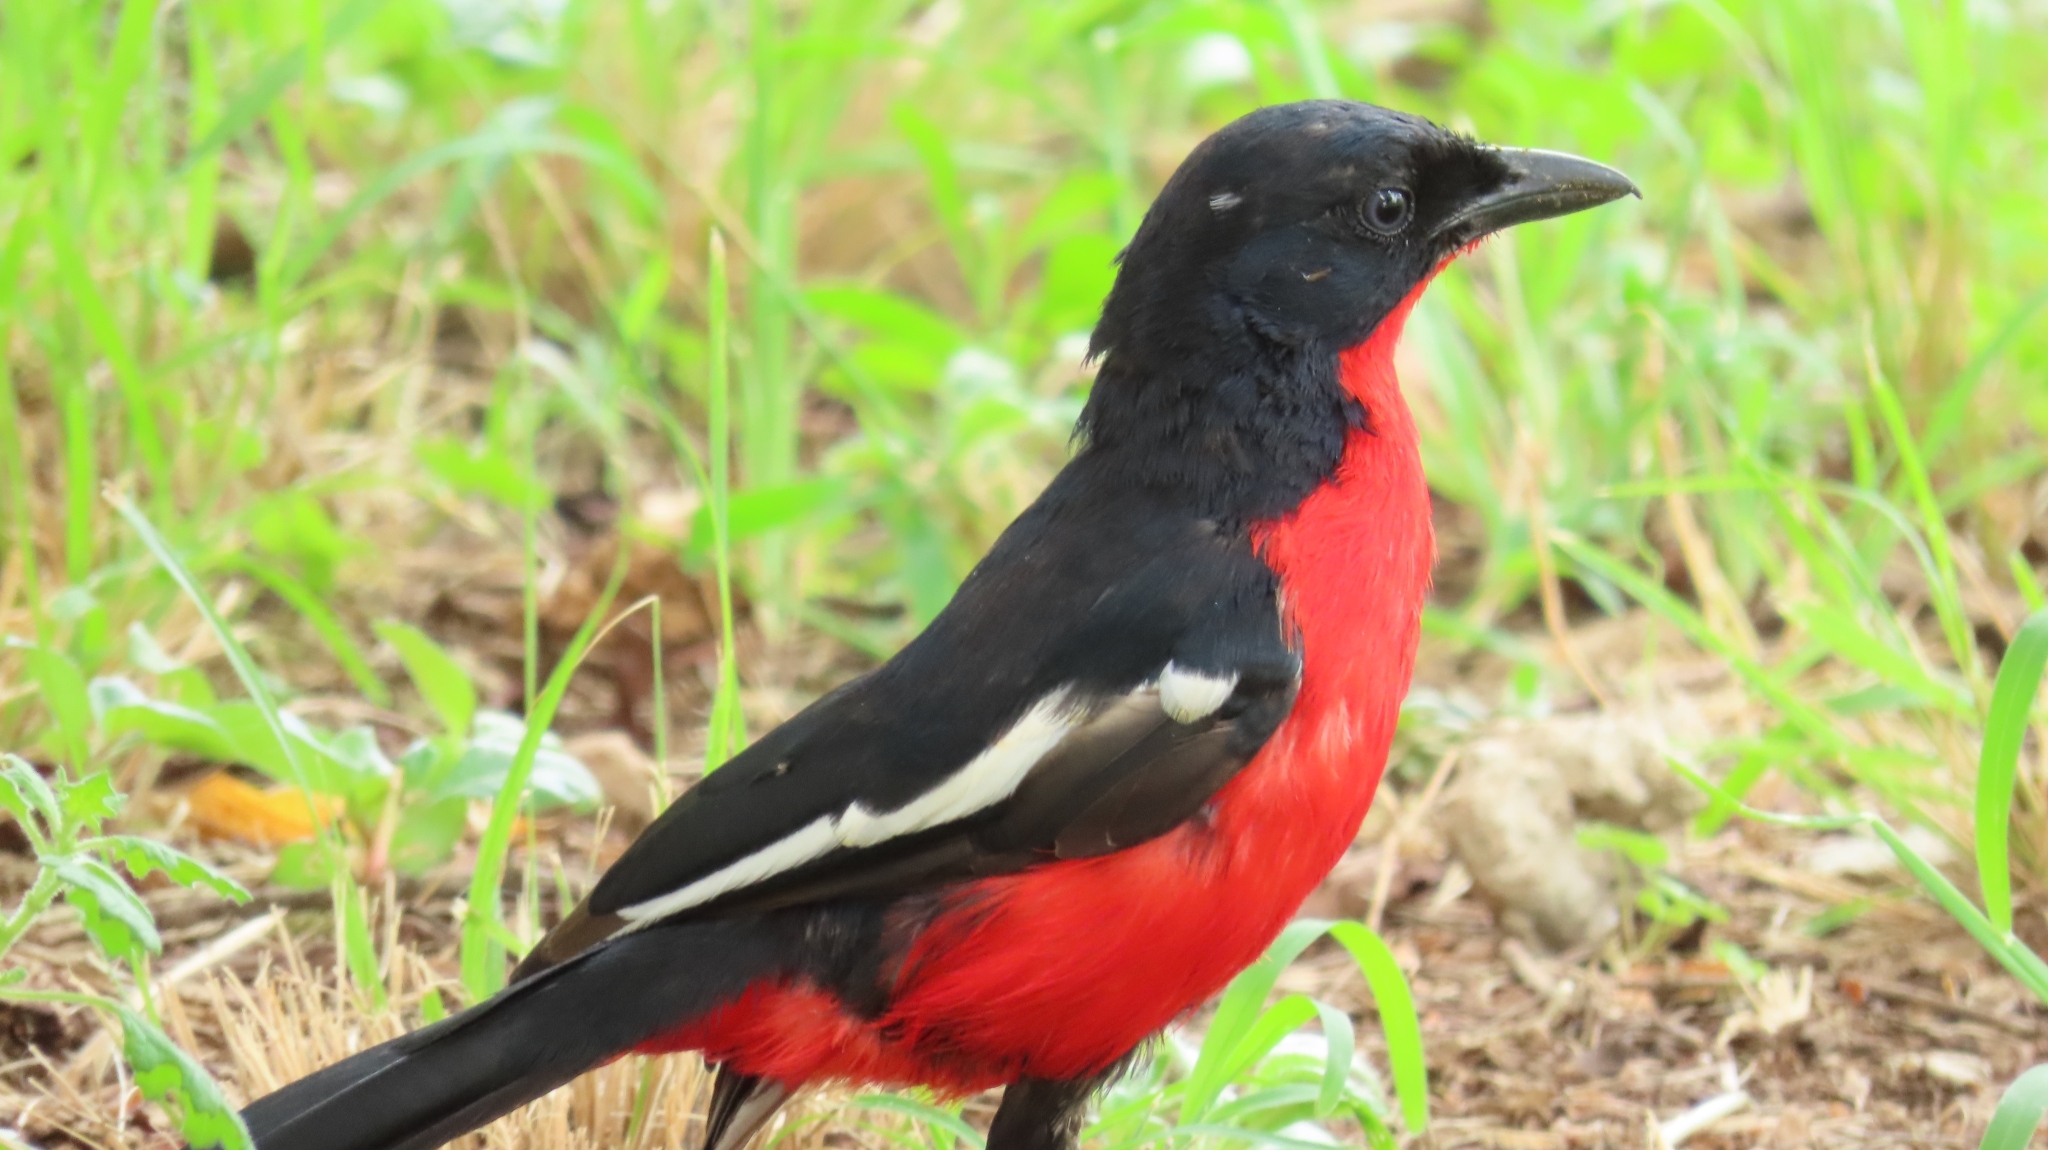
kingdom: Animalia
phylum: Chordata
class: Aves
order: Passeriformes
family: Malaconotidae
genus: Laniarius
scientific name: Laniarius atrococcineus
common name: Crimson-breasted shrike
